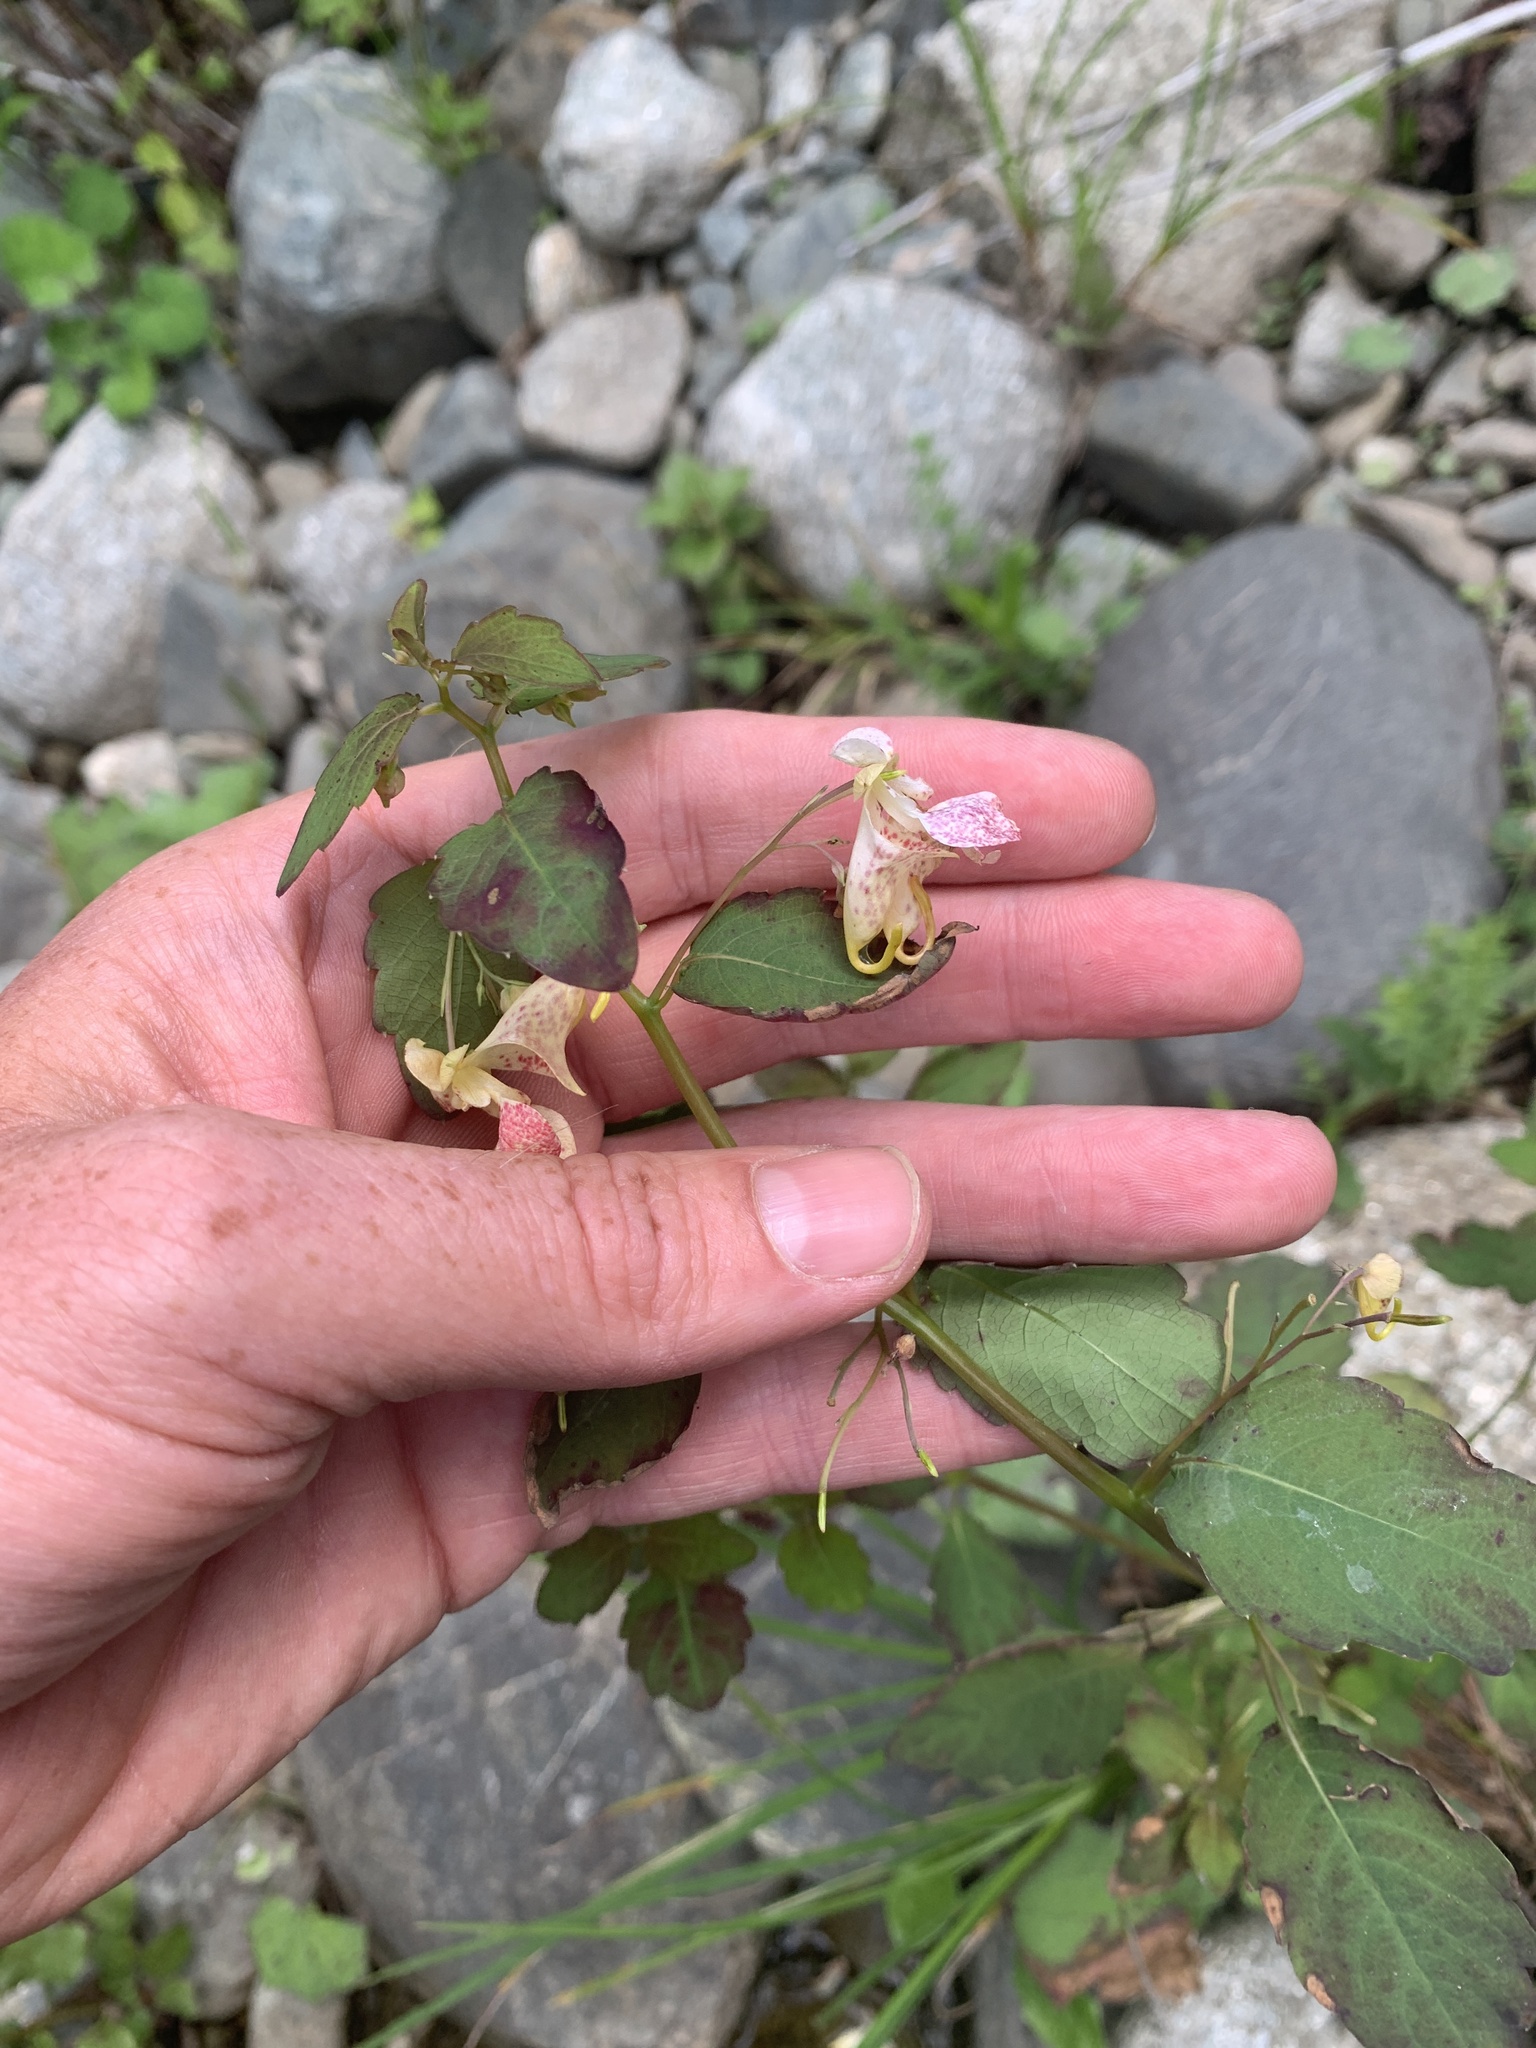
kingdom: Plantae
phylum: Tracheophyta
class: Magnoliopsida
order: Ericales
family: Balsaminaceae
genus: Impatiens
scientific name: Impatiens capensis
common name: Orange balsam
